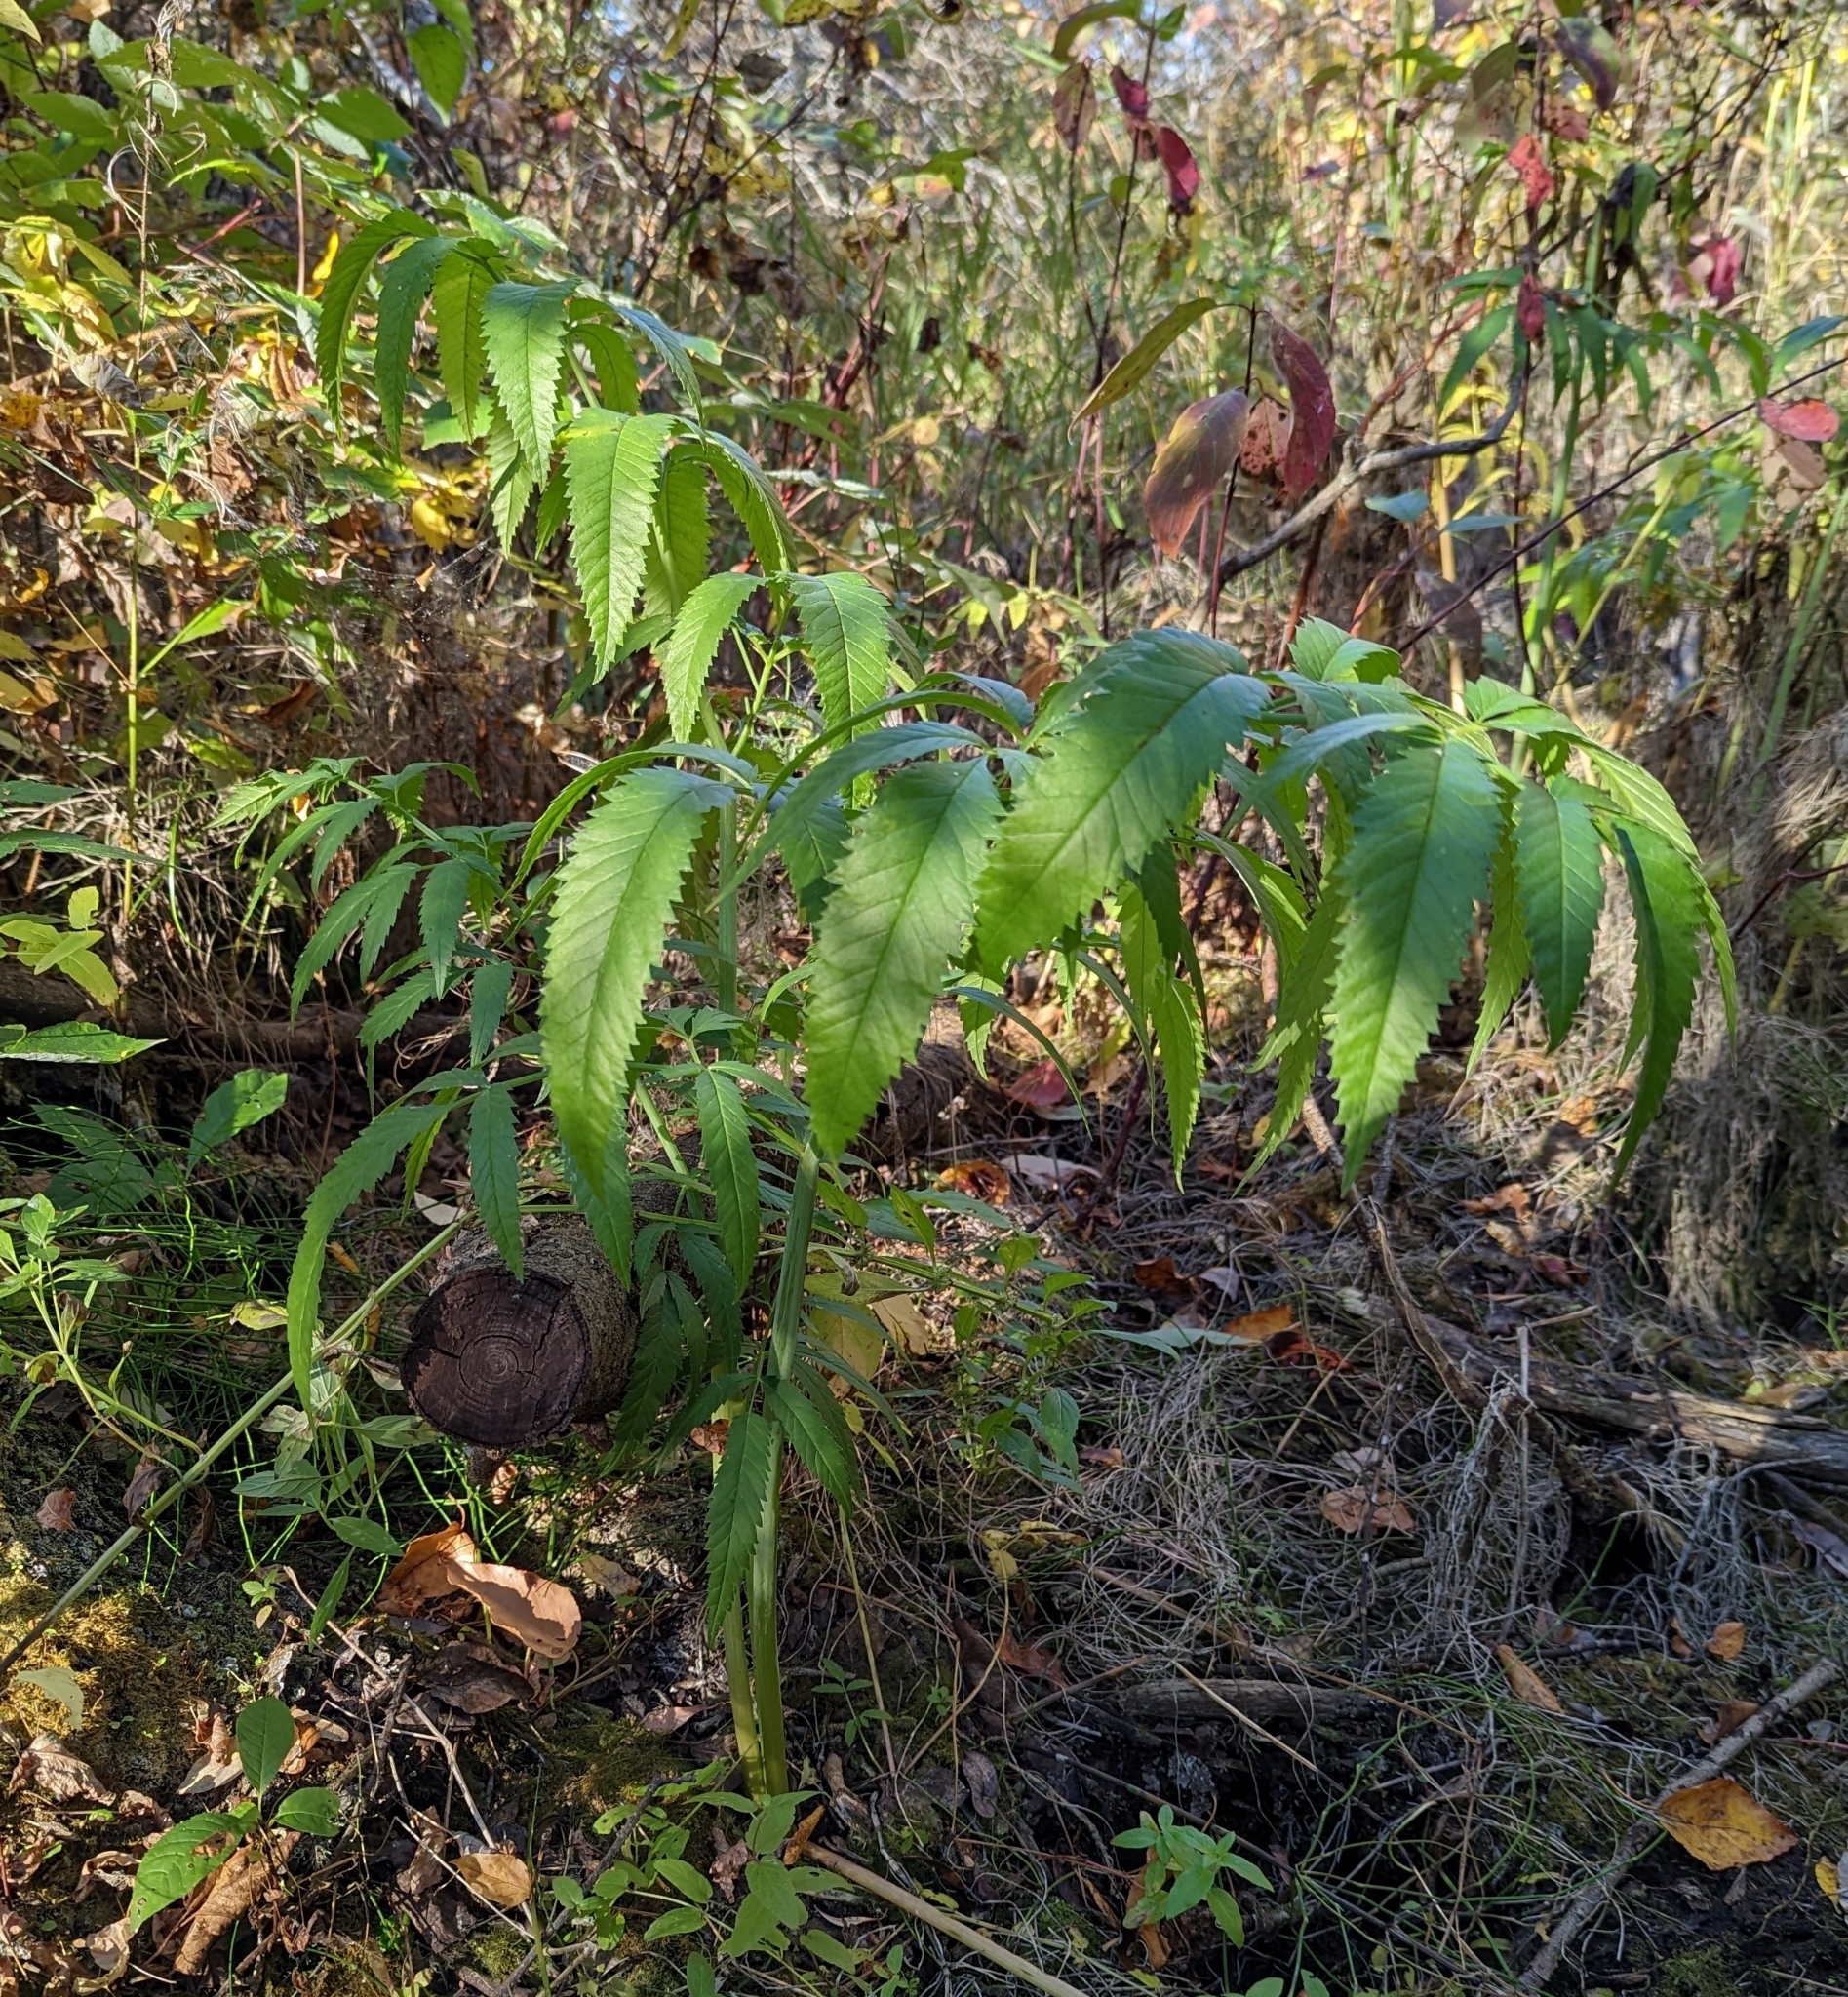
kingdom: Plantae
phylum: Tracheophyta
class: Magnoliopsida
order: Apiales
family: Apiaceae
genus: Cicuta
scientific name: Cicuta maculata
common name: Spotted cowbane
